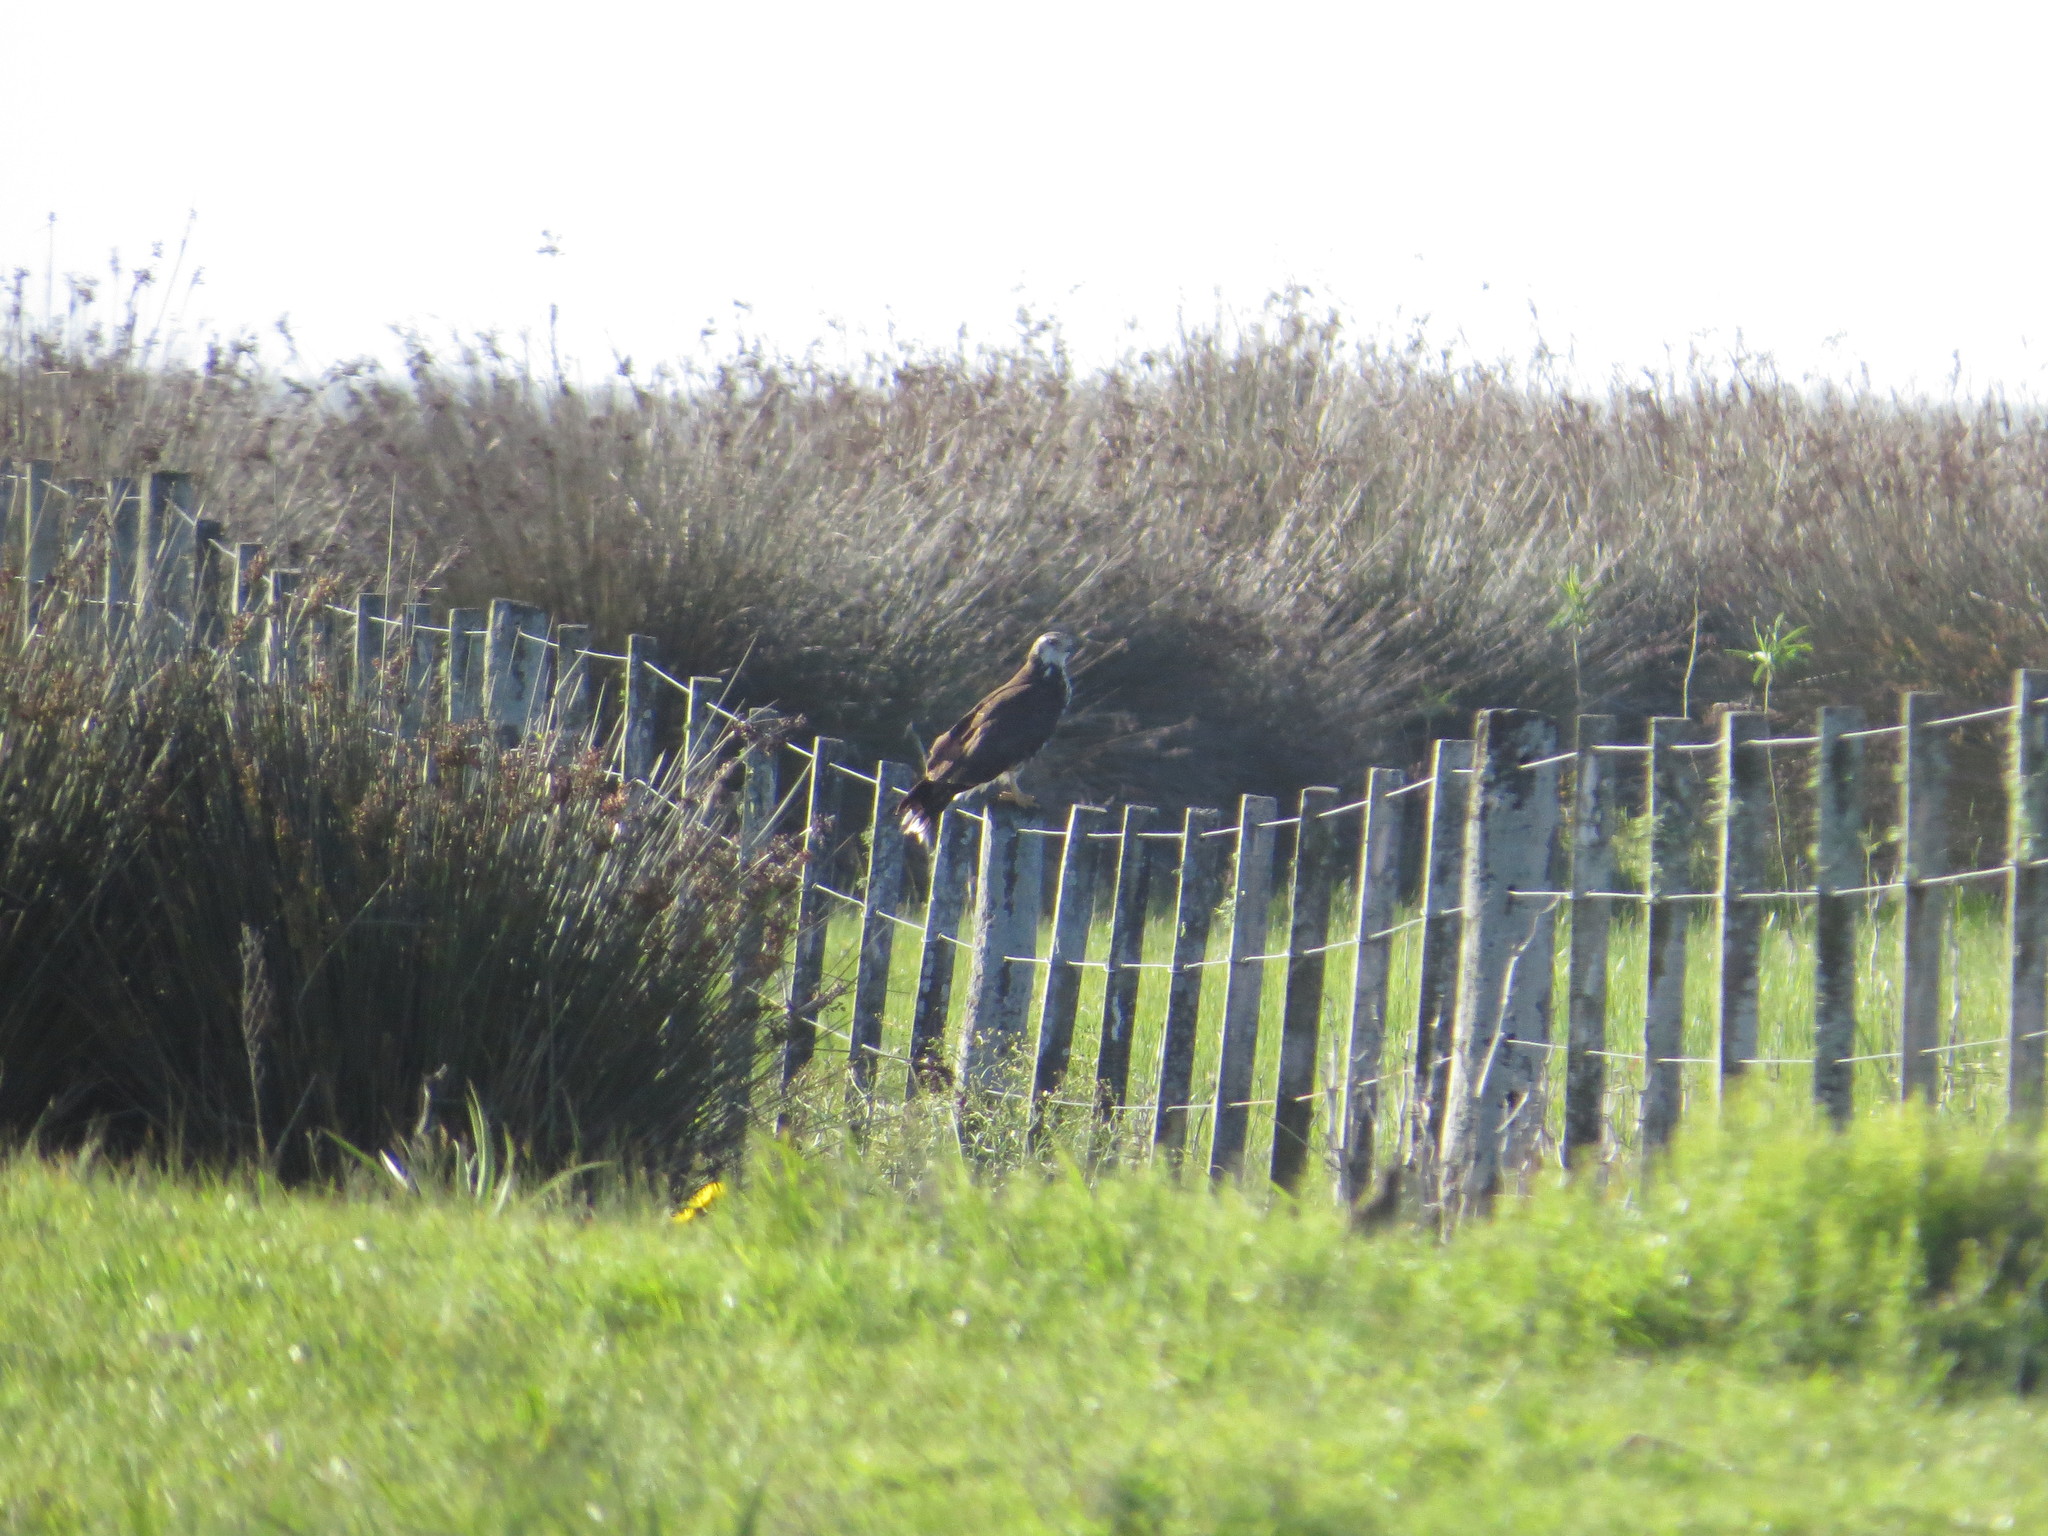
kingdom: Animalia
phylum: Chordata
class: Aves
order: Accipitriformes
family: Accipitridae
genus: Rostrhamus
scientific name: Rostrhamus sociabilis
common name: Snail kite
